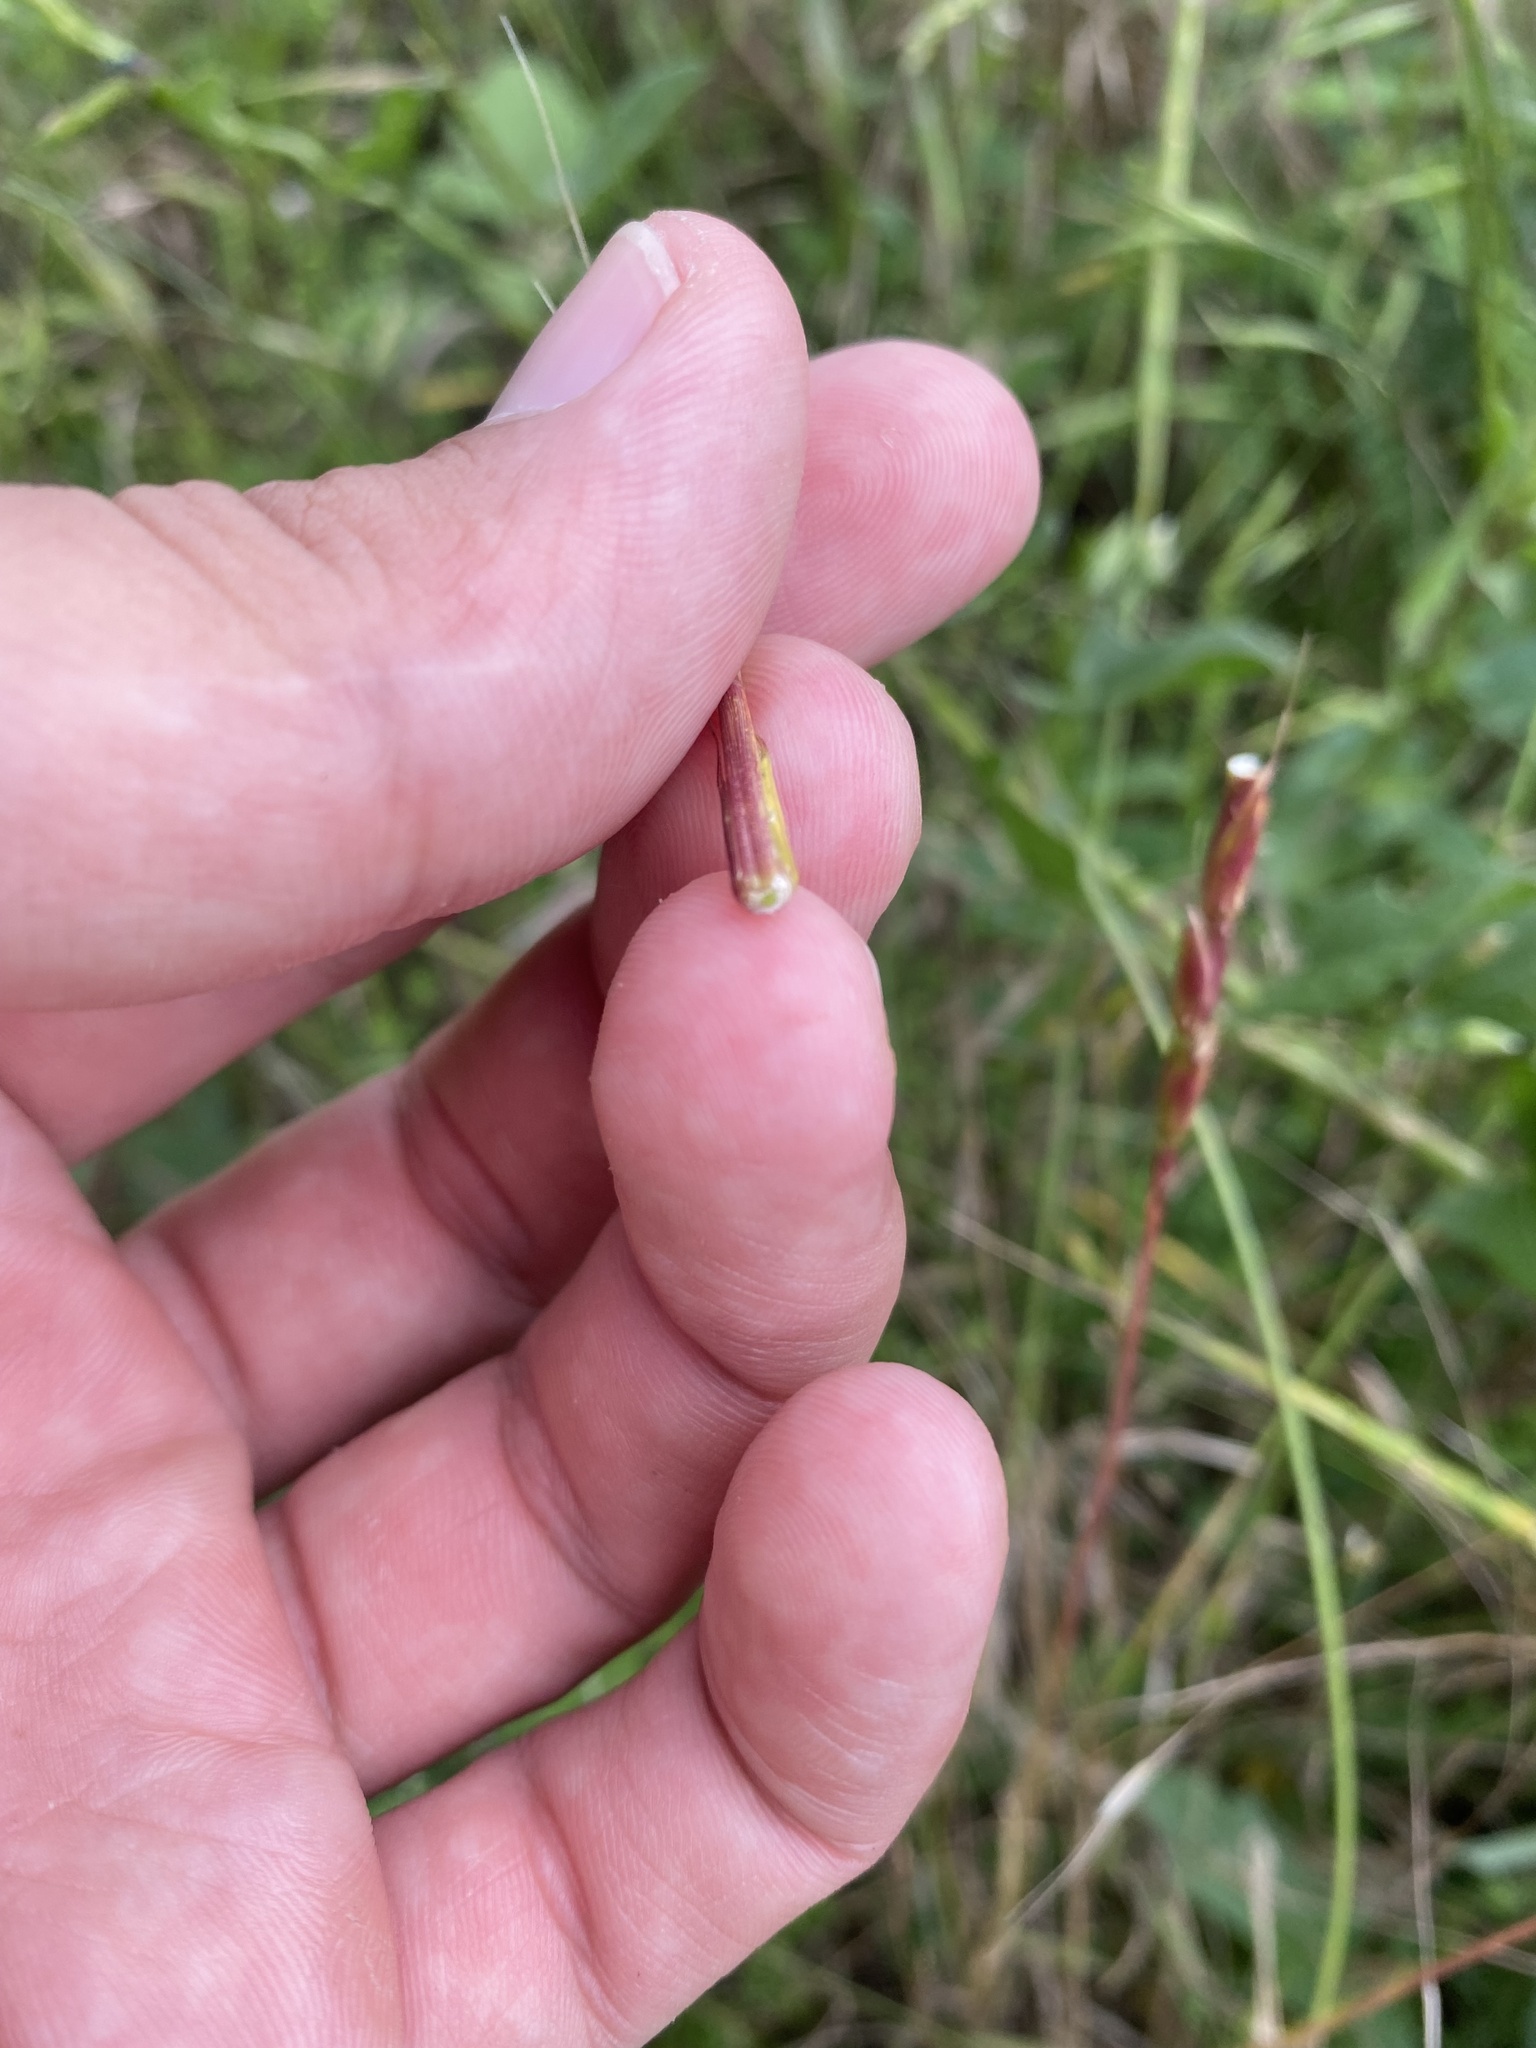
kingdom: Plantae
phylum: Tracheophyta
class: Liliopsida
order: Poales
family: Poaceae
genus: Aegilops
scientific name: Aegilops cylindrica
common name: Jointed goatgrass
